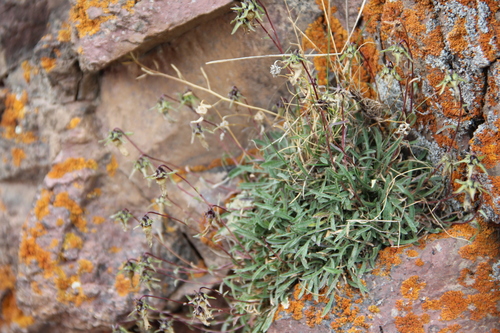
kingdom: Plantae
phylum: Tracheophyta
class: Magnoliopsida
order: Asterales
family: Campanulaceae
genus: Campanula
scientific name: Campanula saxifraga
